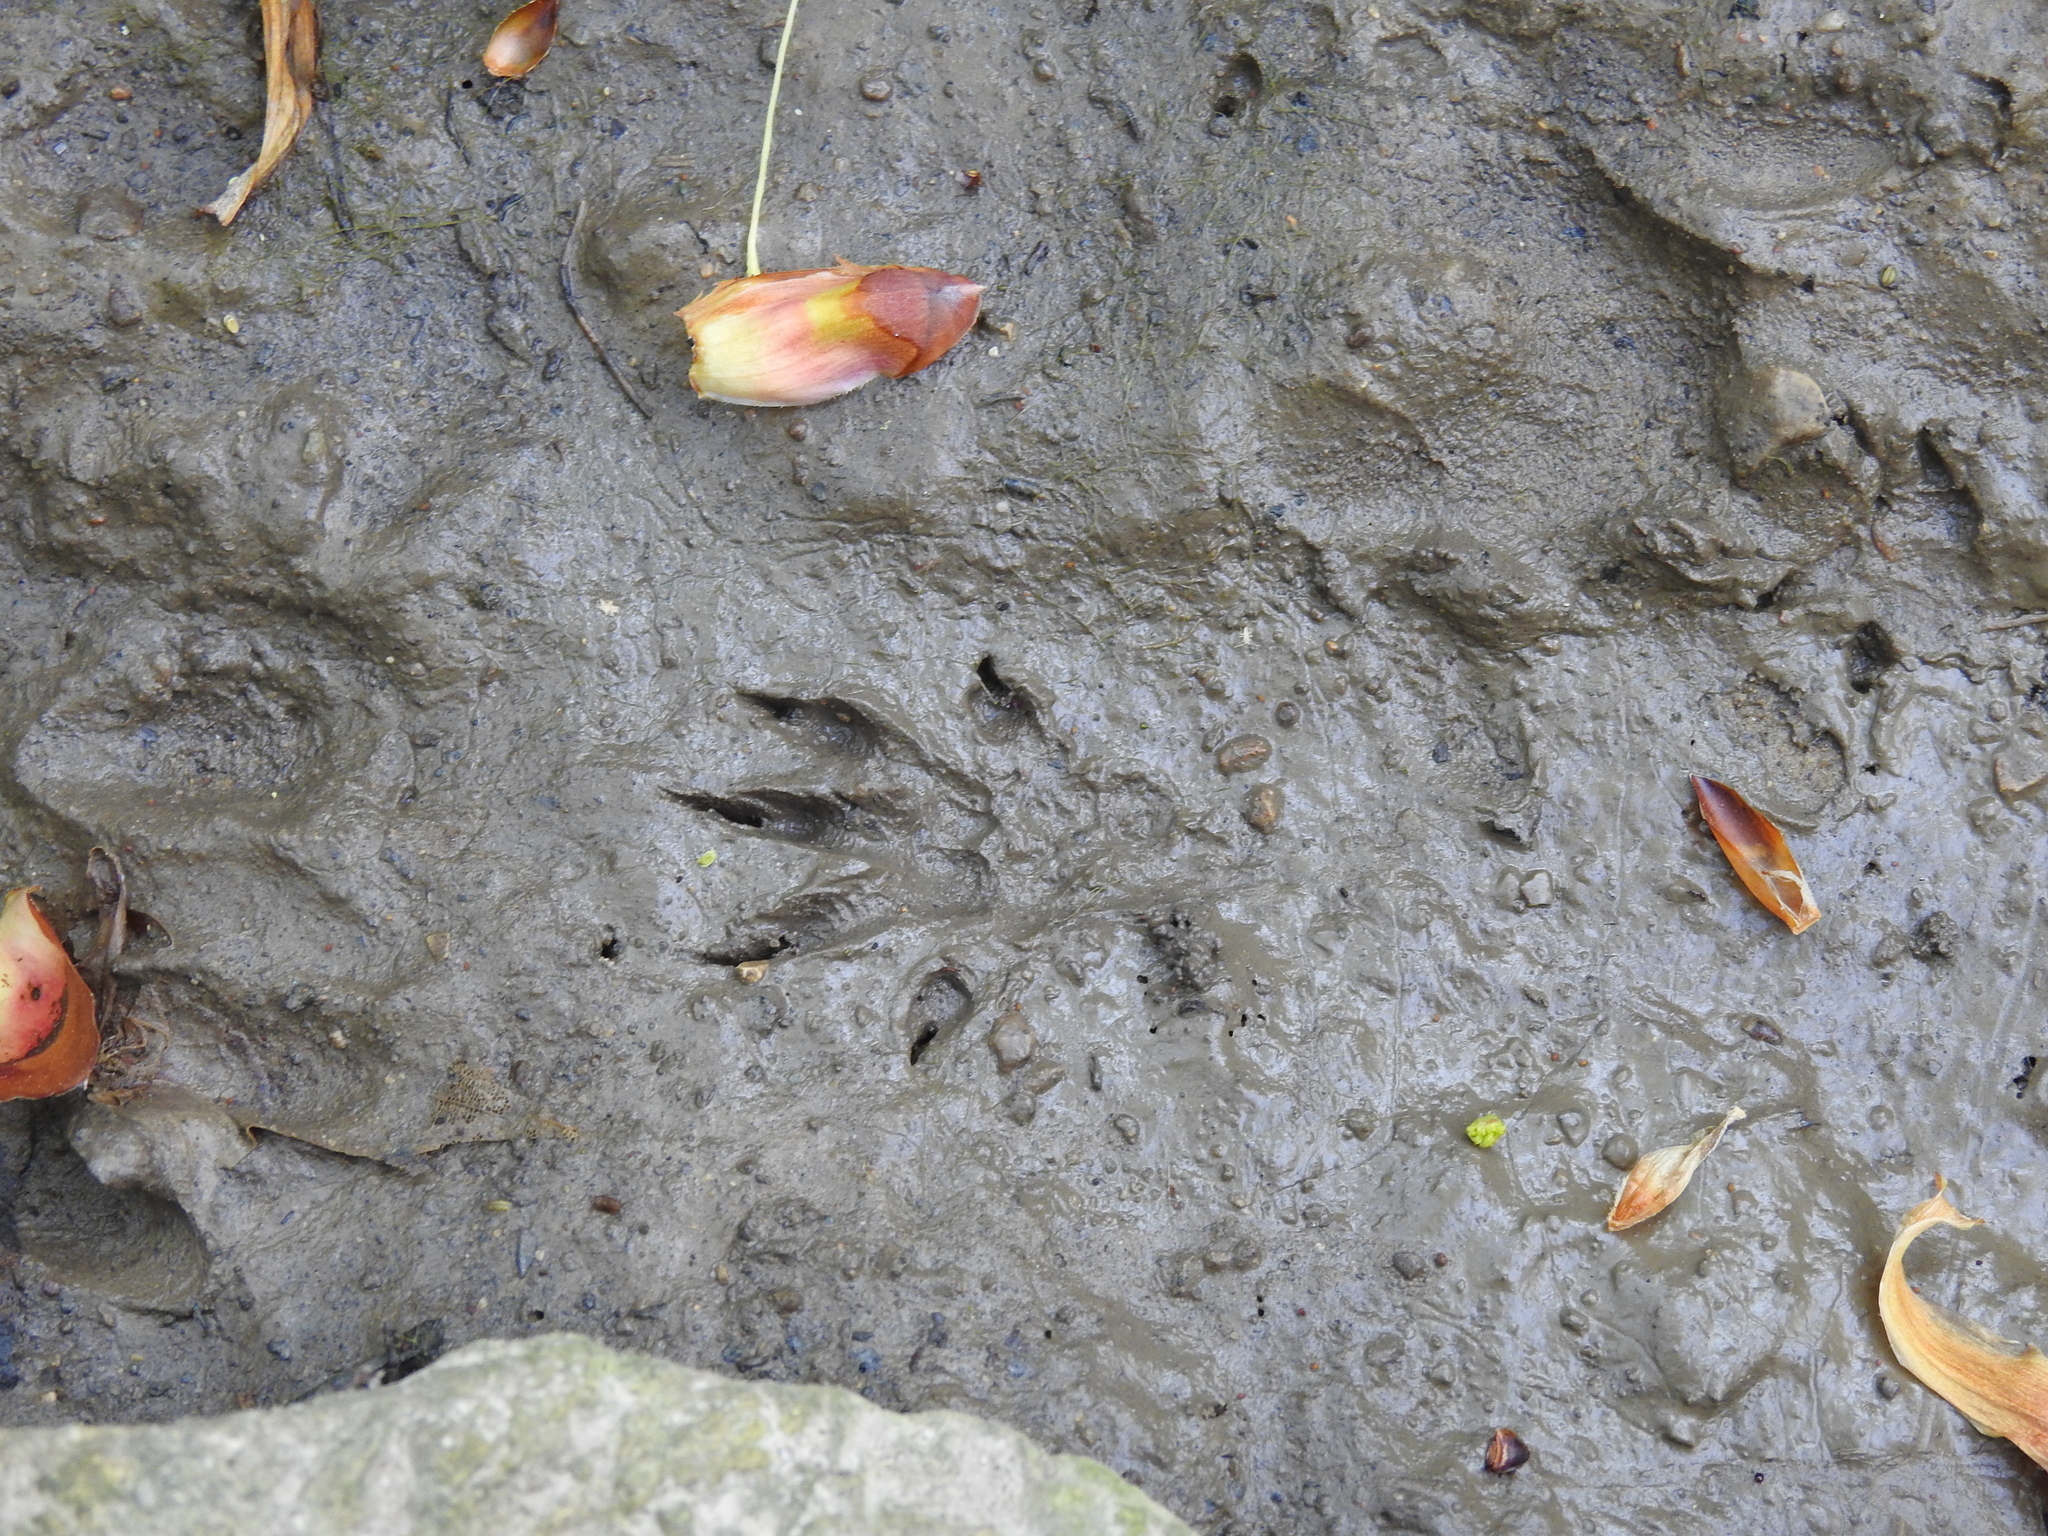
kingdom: Animalia
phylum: Chordata
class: Mammalia
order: Carnivora
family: Procyonidae
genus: Procyon
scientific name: Procyon lotor
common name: Raccoon
